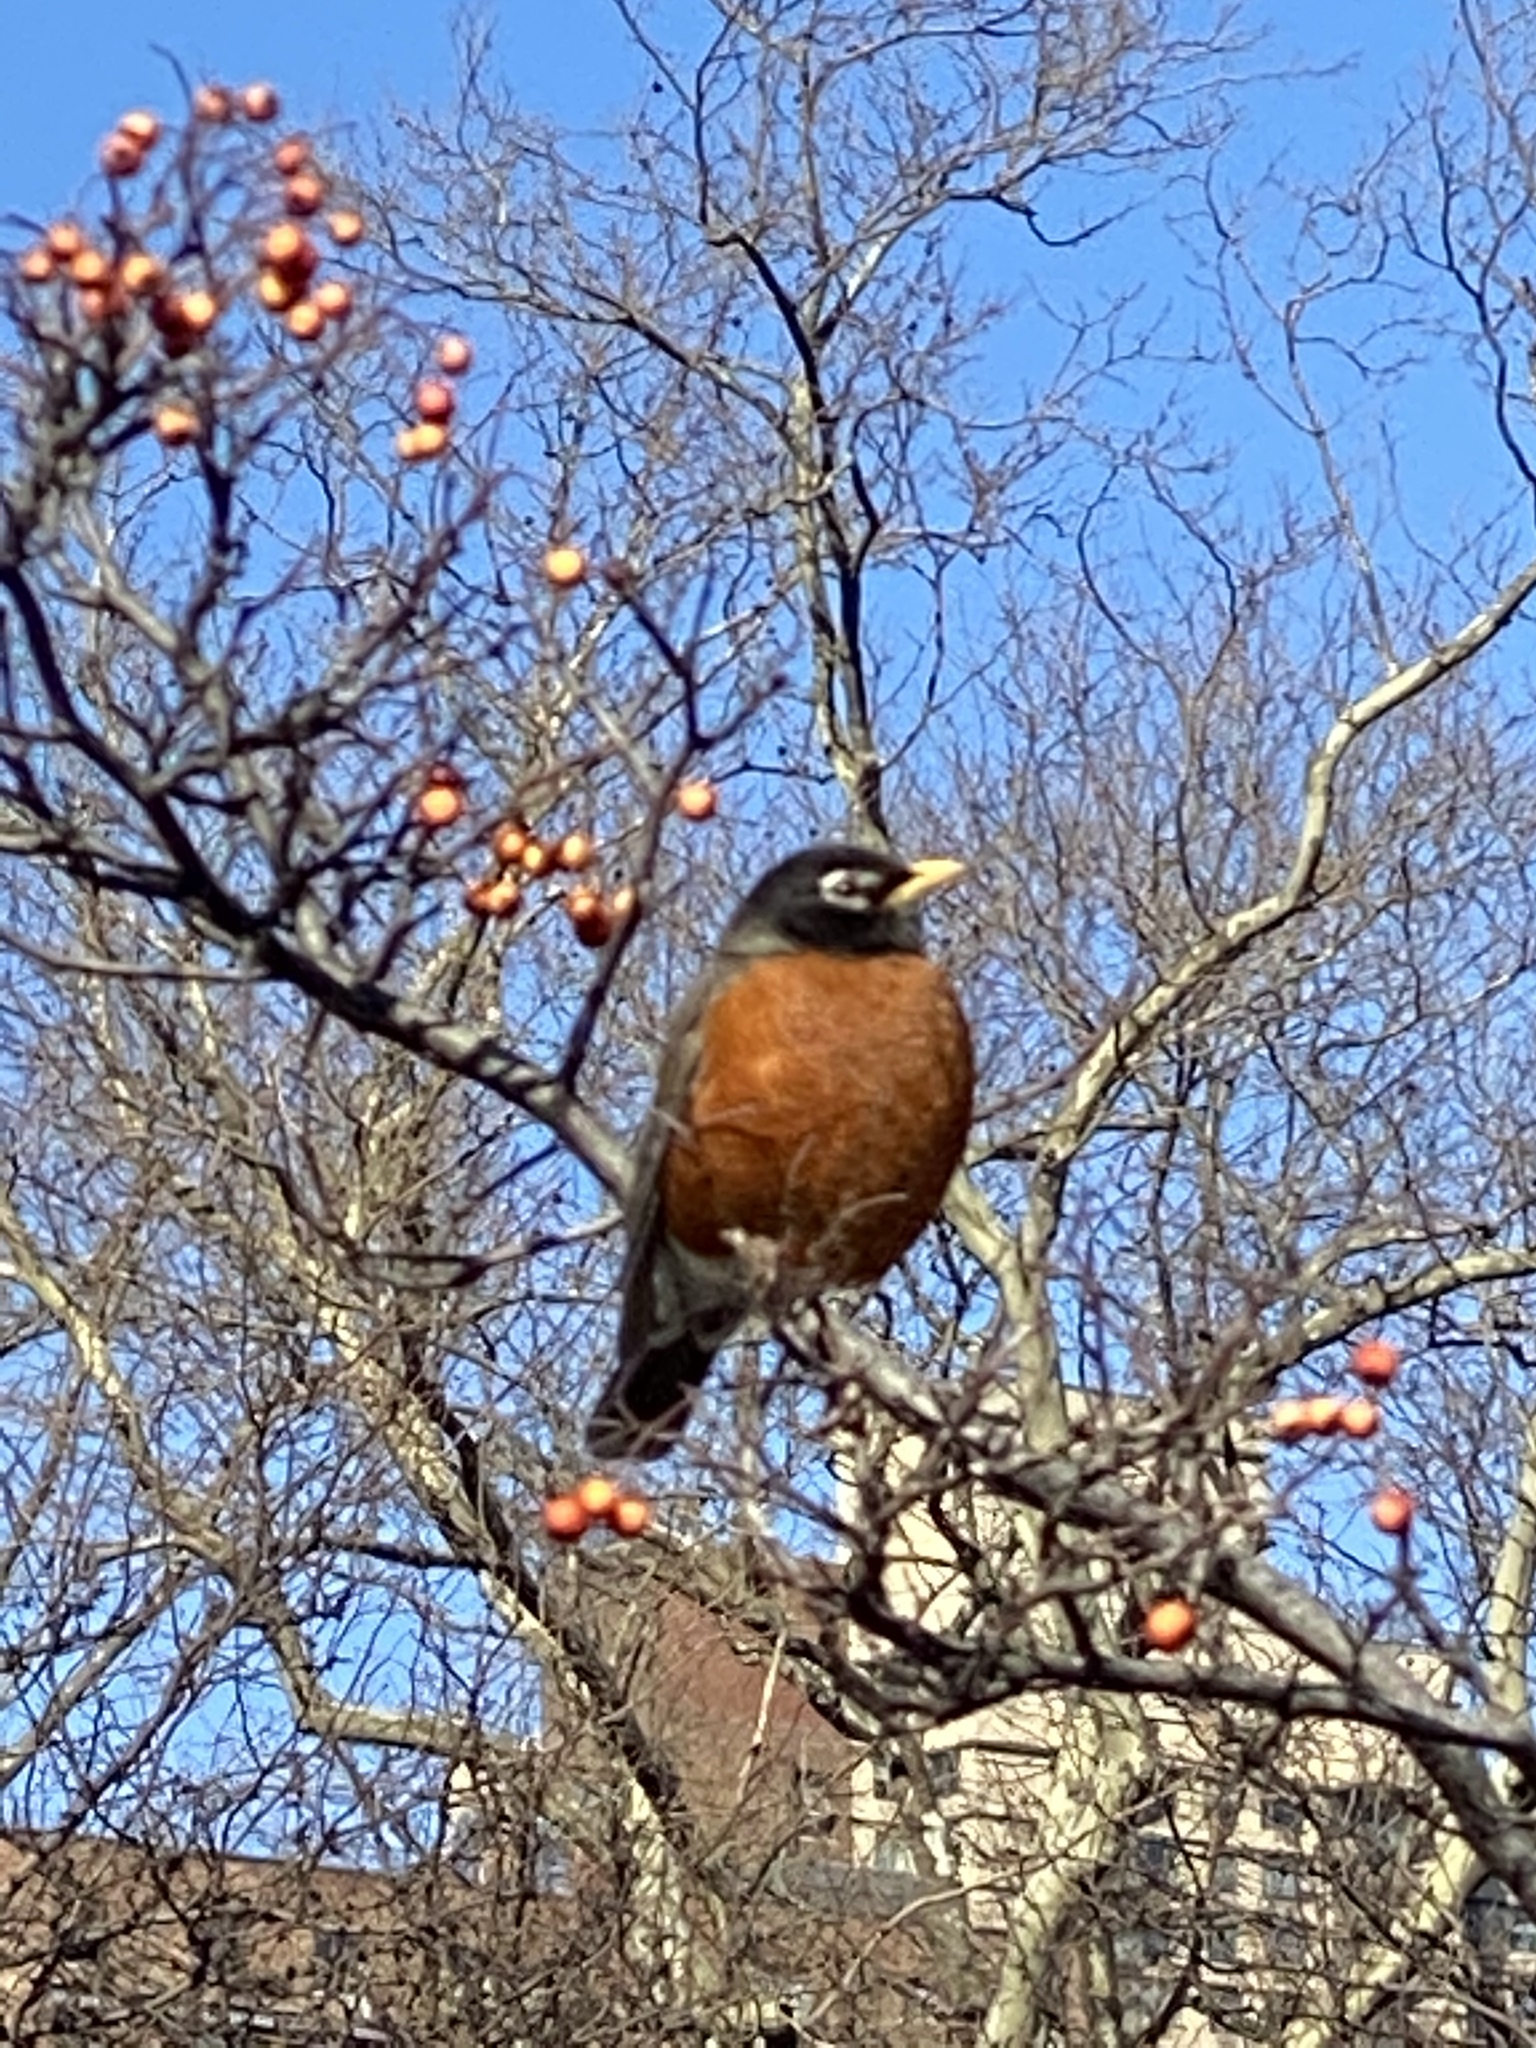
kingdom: Animalia
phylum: Chordata
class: Aves
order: Passeriformes
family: Turdidae
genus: Turdus
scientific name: Turdus migratorius
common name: American robin
